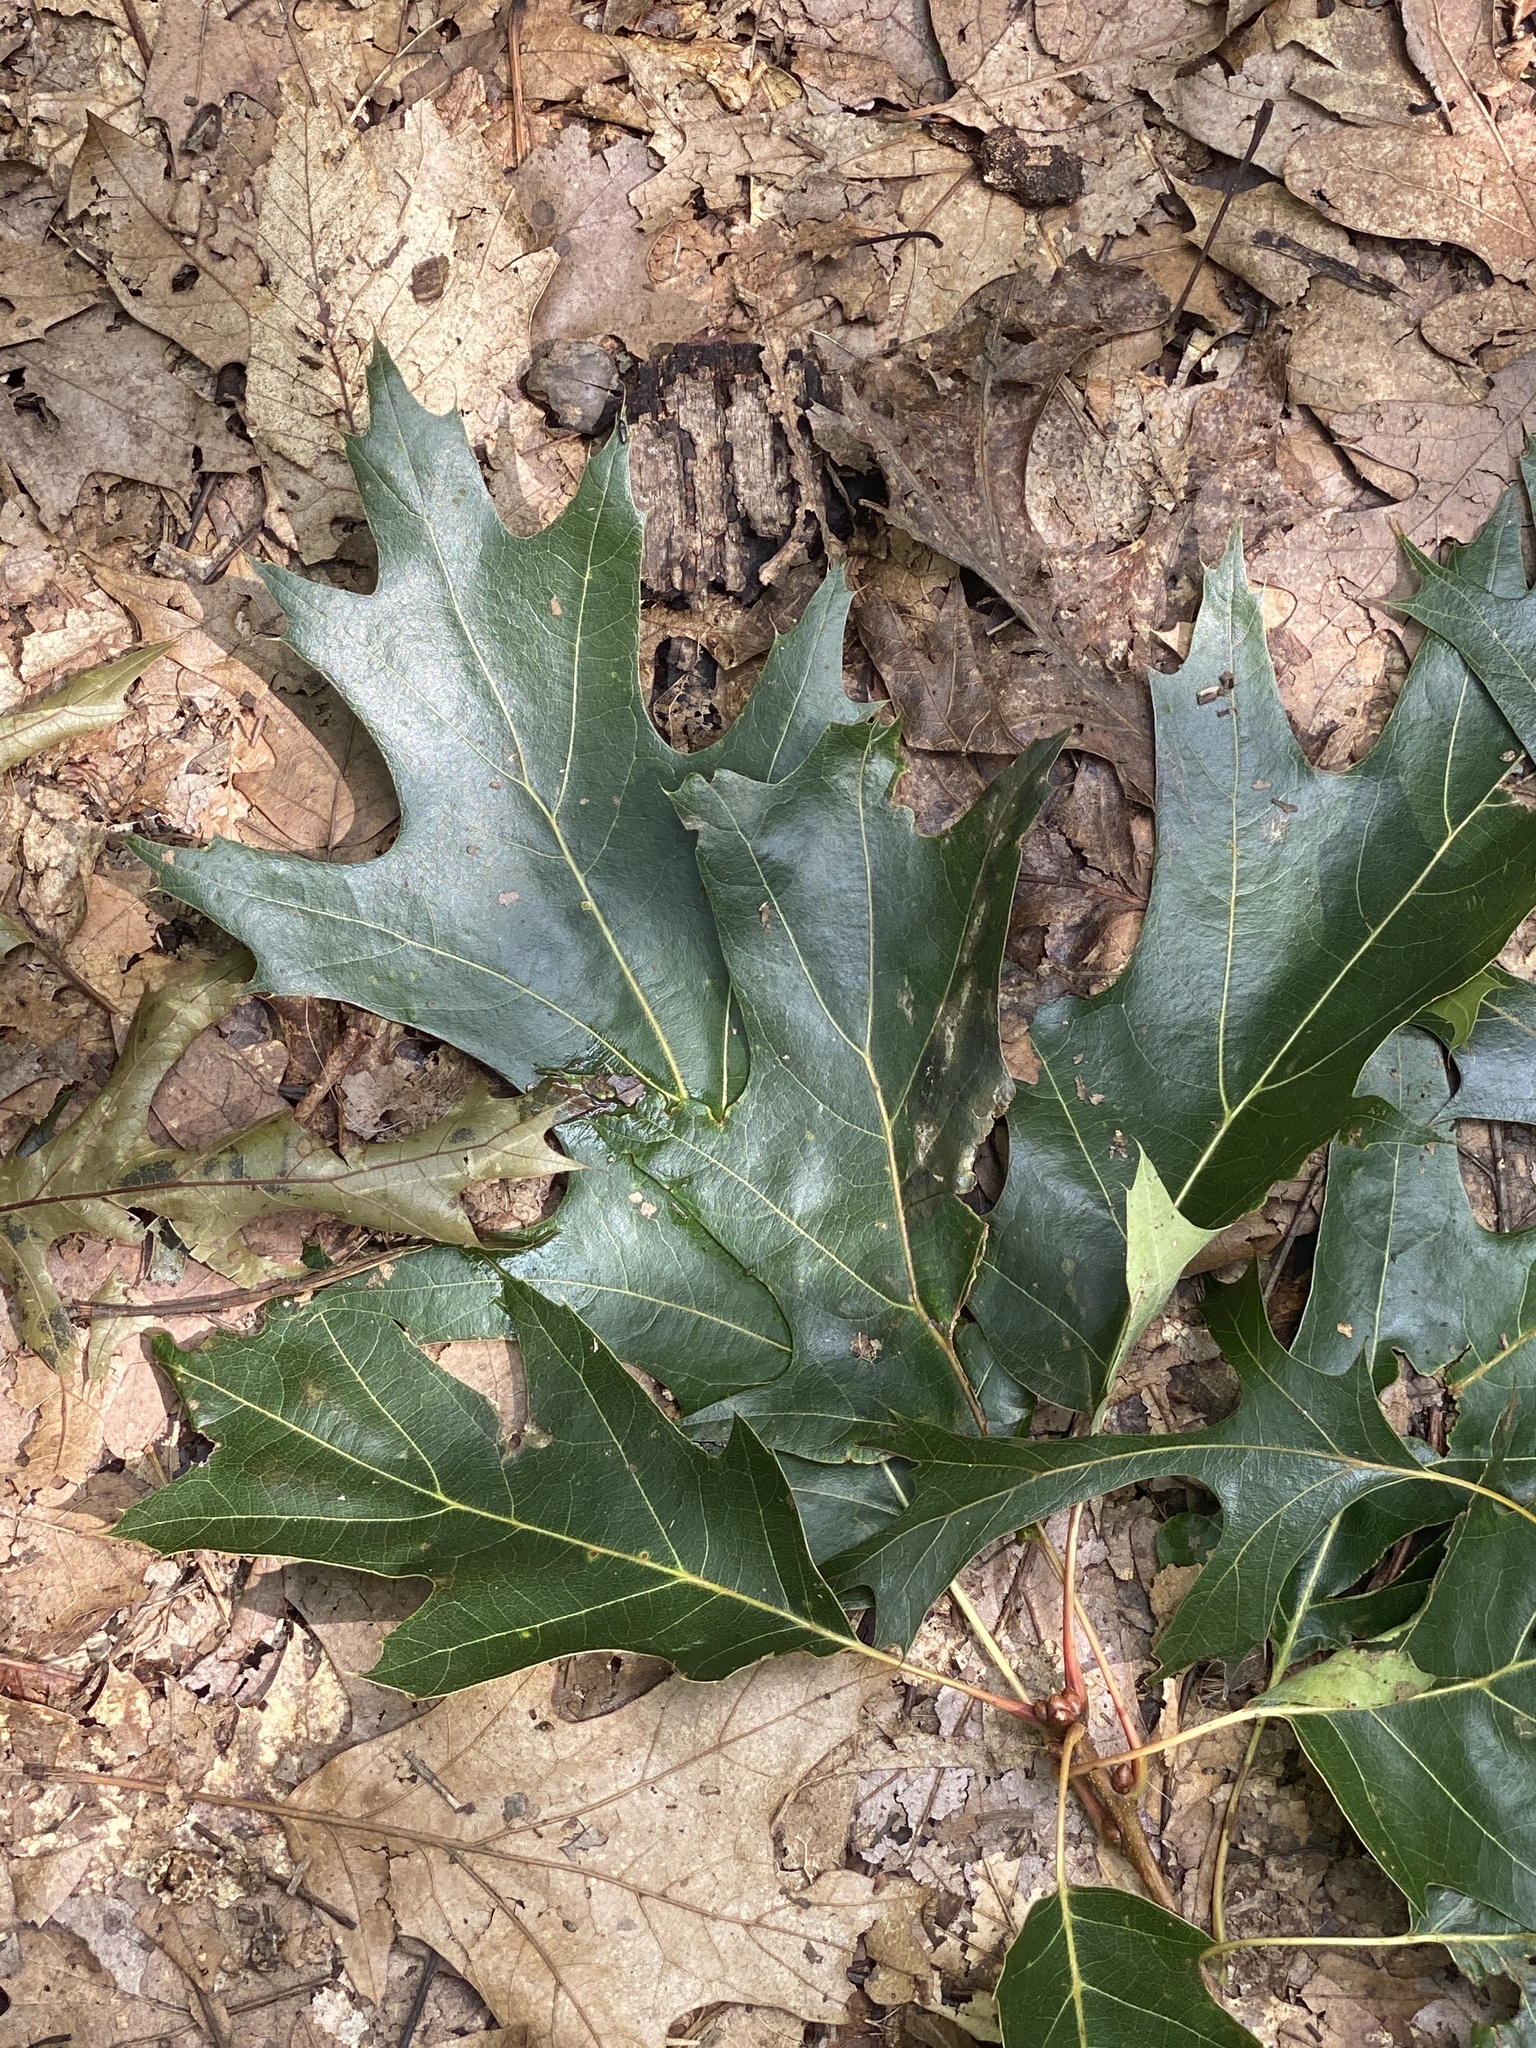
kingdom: Plantae
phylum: Tracheophyta
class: Magnoliopsida
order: Fagales
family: Fagaceae
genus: Quercus
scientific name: Quercus rubra
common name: Red oak
